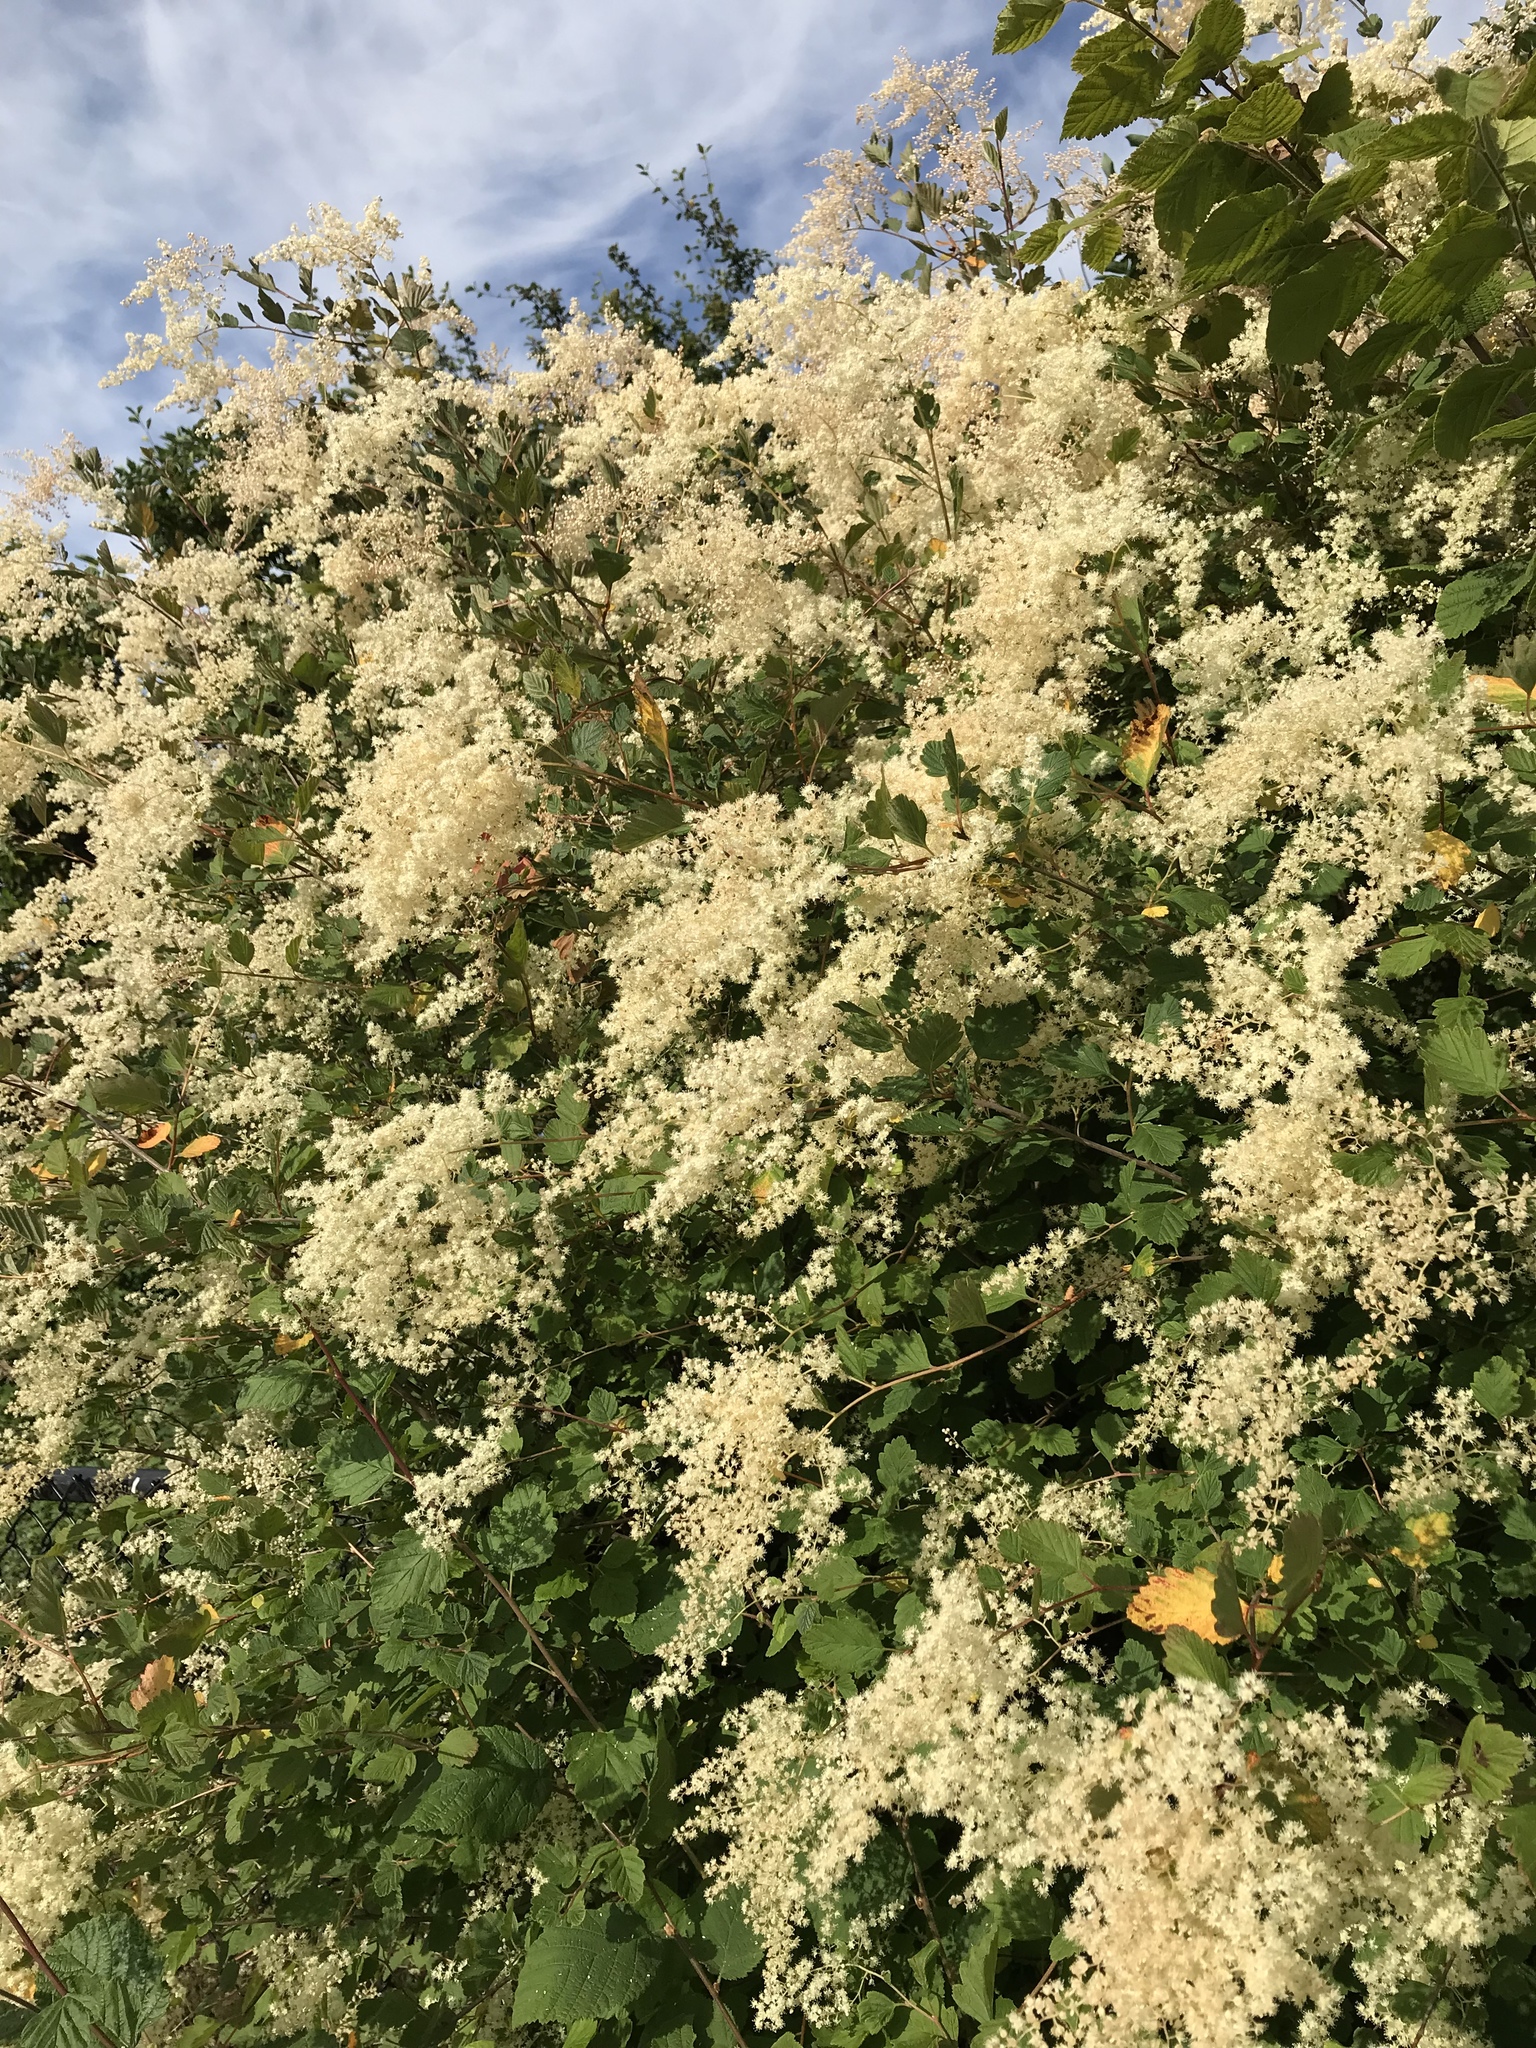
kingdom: Plantae
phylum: Tracheophyta
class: Magnoliopsida
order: Rosales
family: Rosaceae
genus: Holodiscus
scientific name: Holodiscus discolor
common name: Oceanspray
